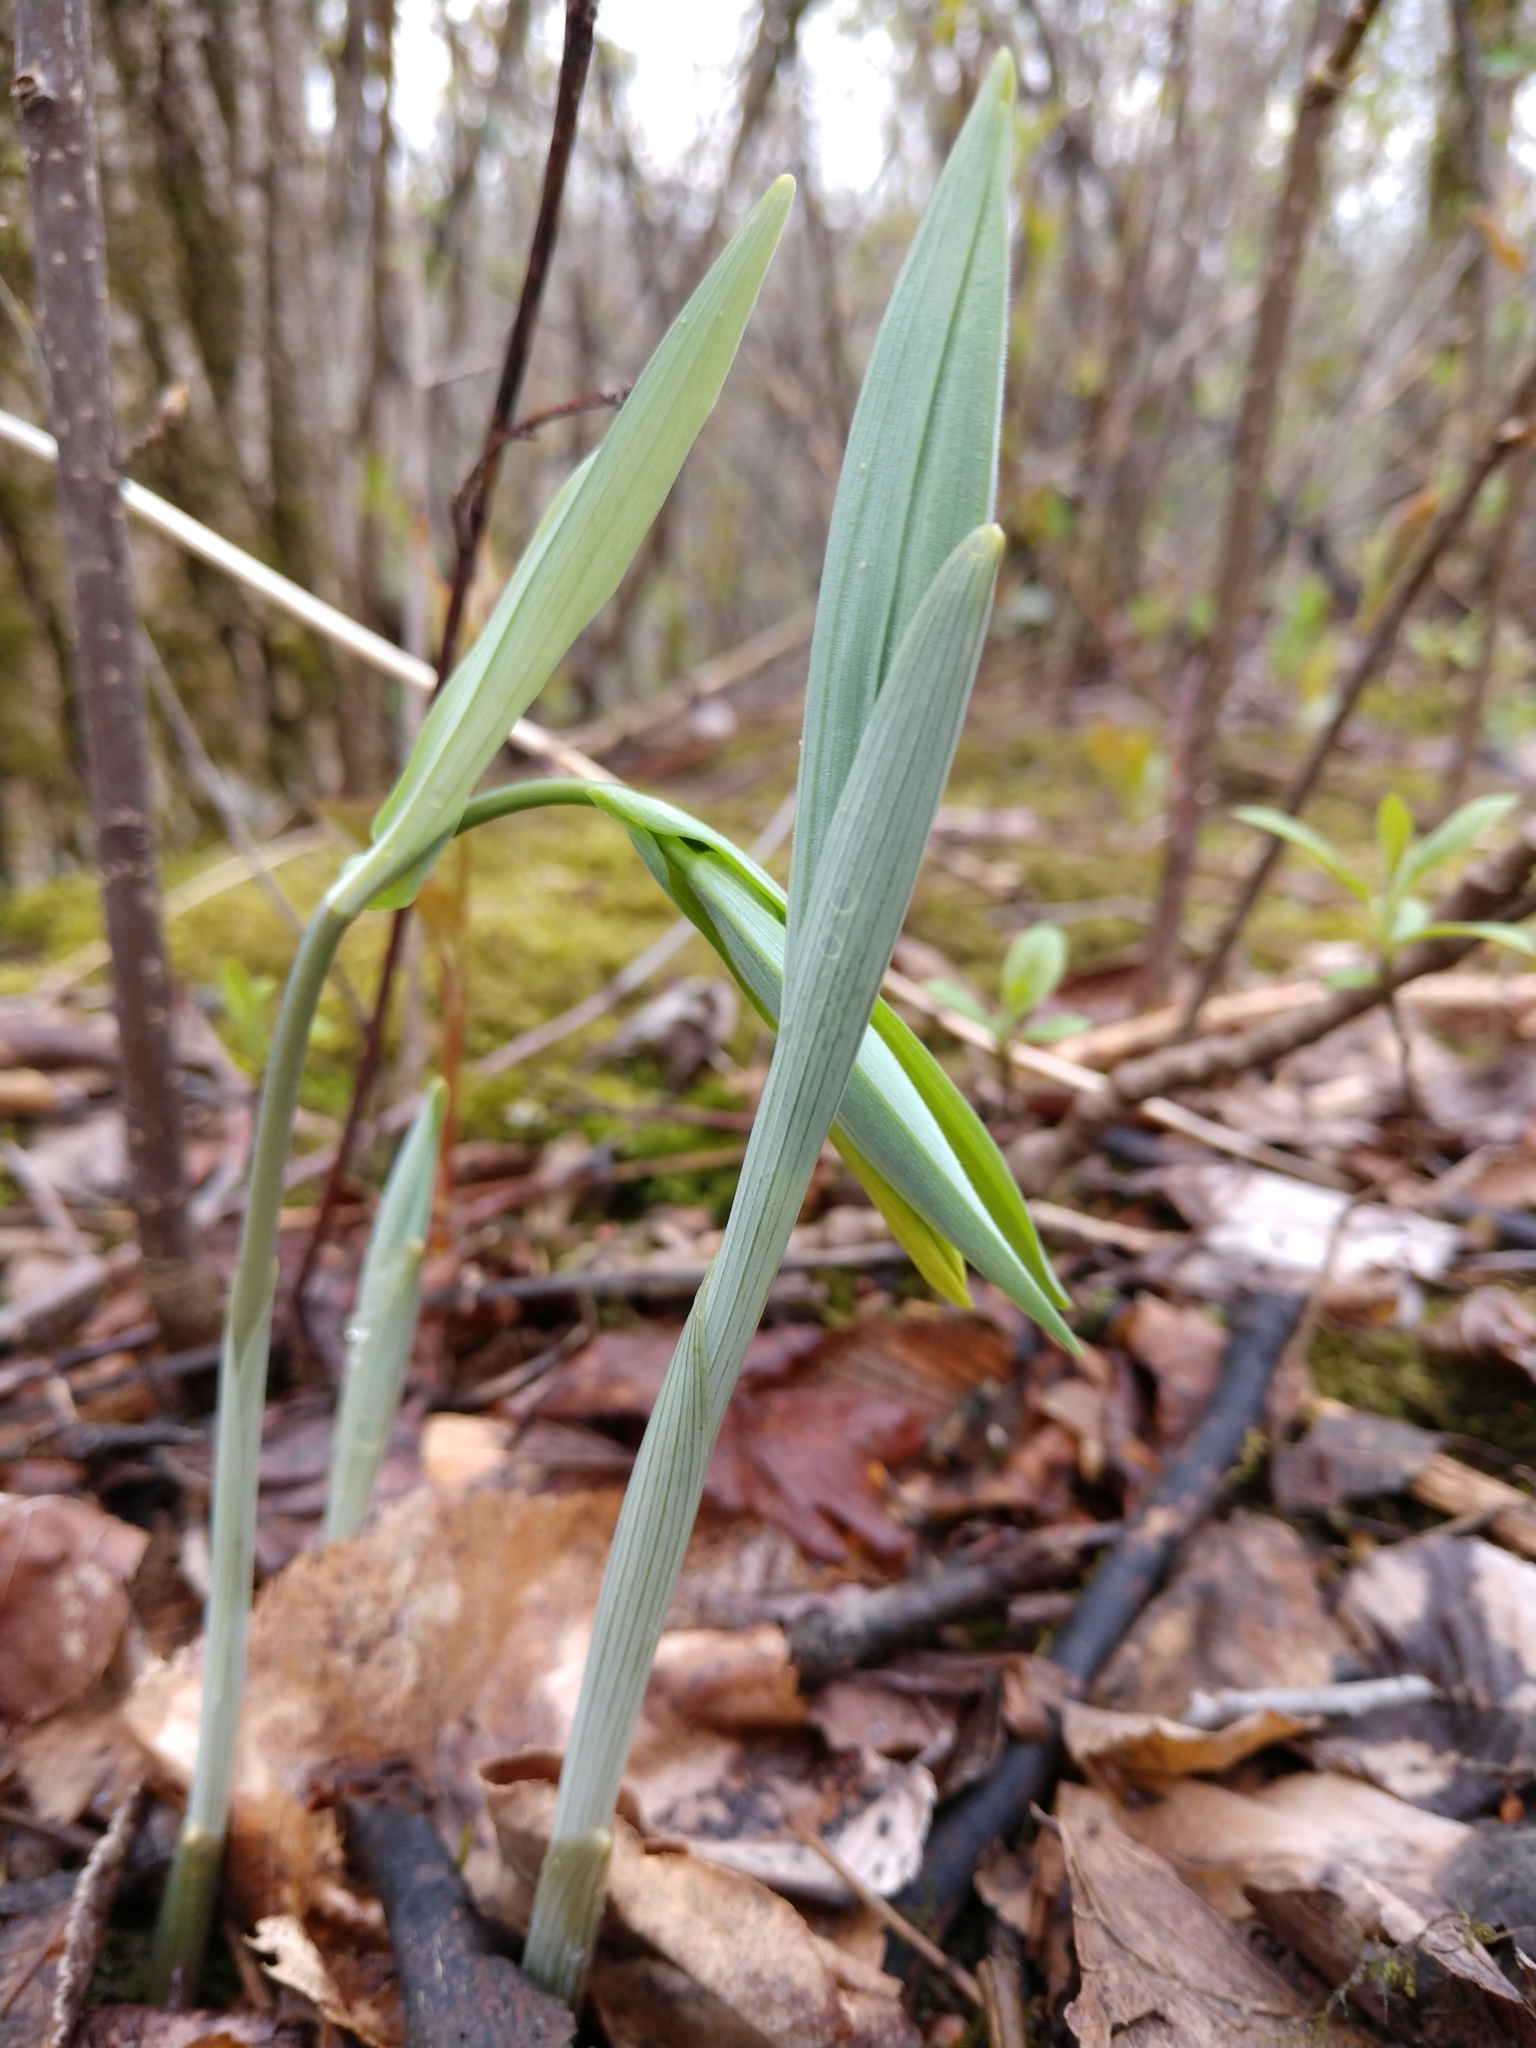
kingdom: Plantae
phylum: Tracheophyta
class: Liliopsida
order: Liliales
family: Colchicaceae
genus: Uvularia
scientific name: Uvularia grandiflora
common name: Bellwort
